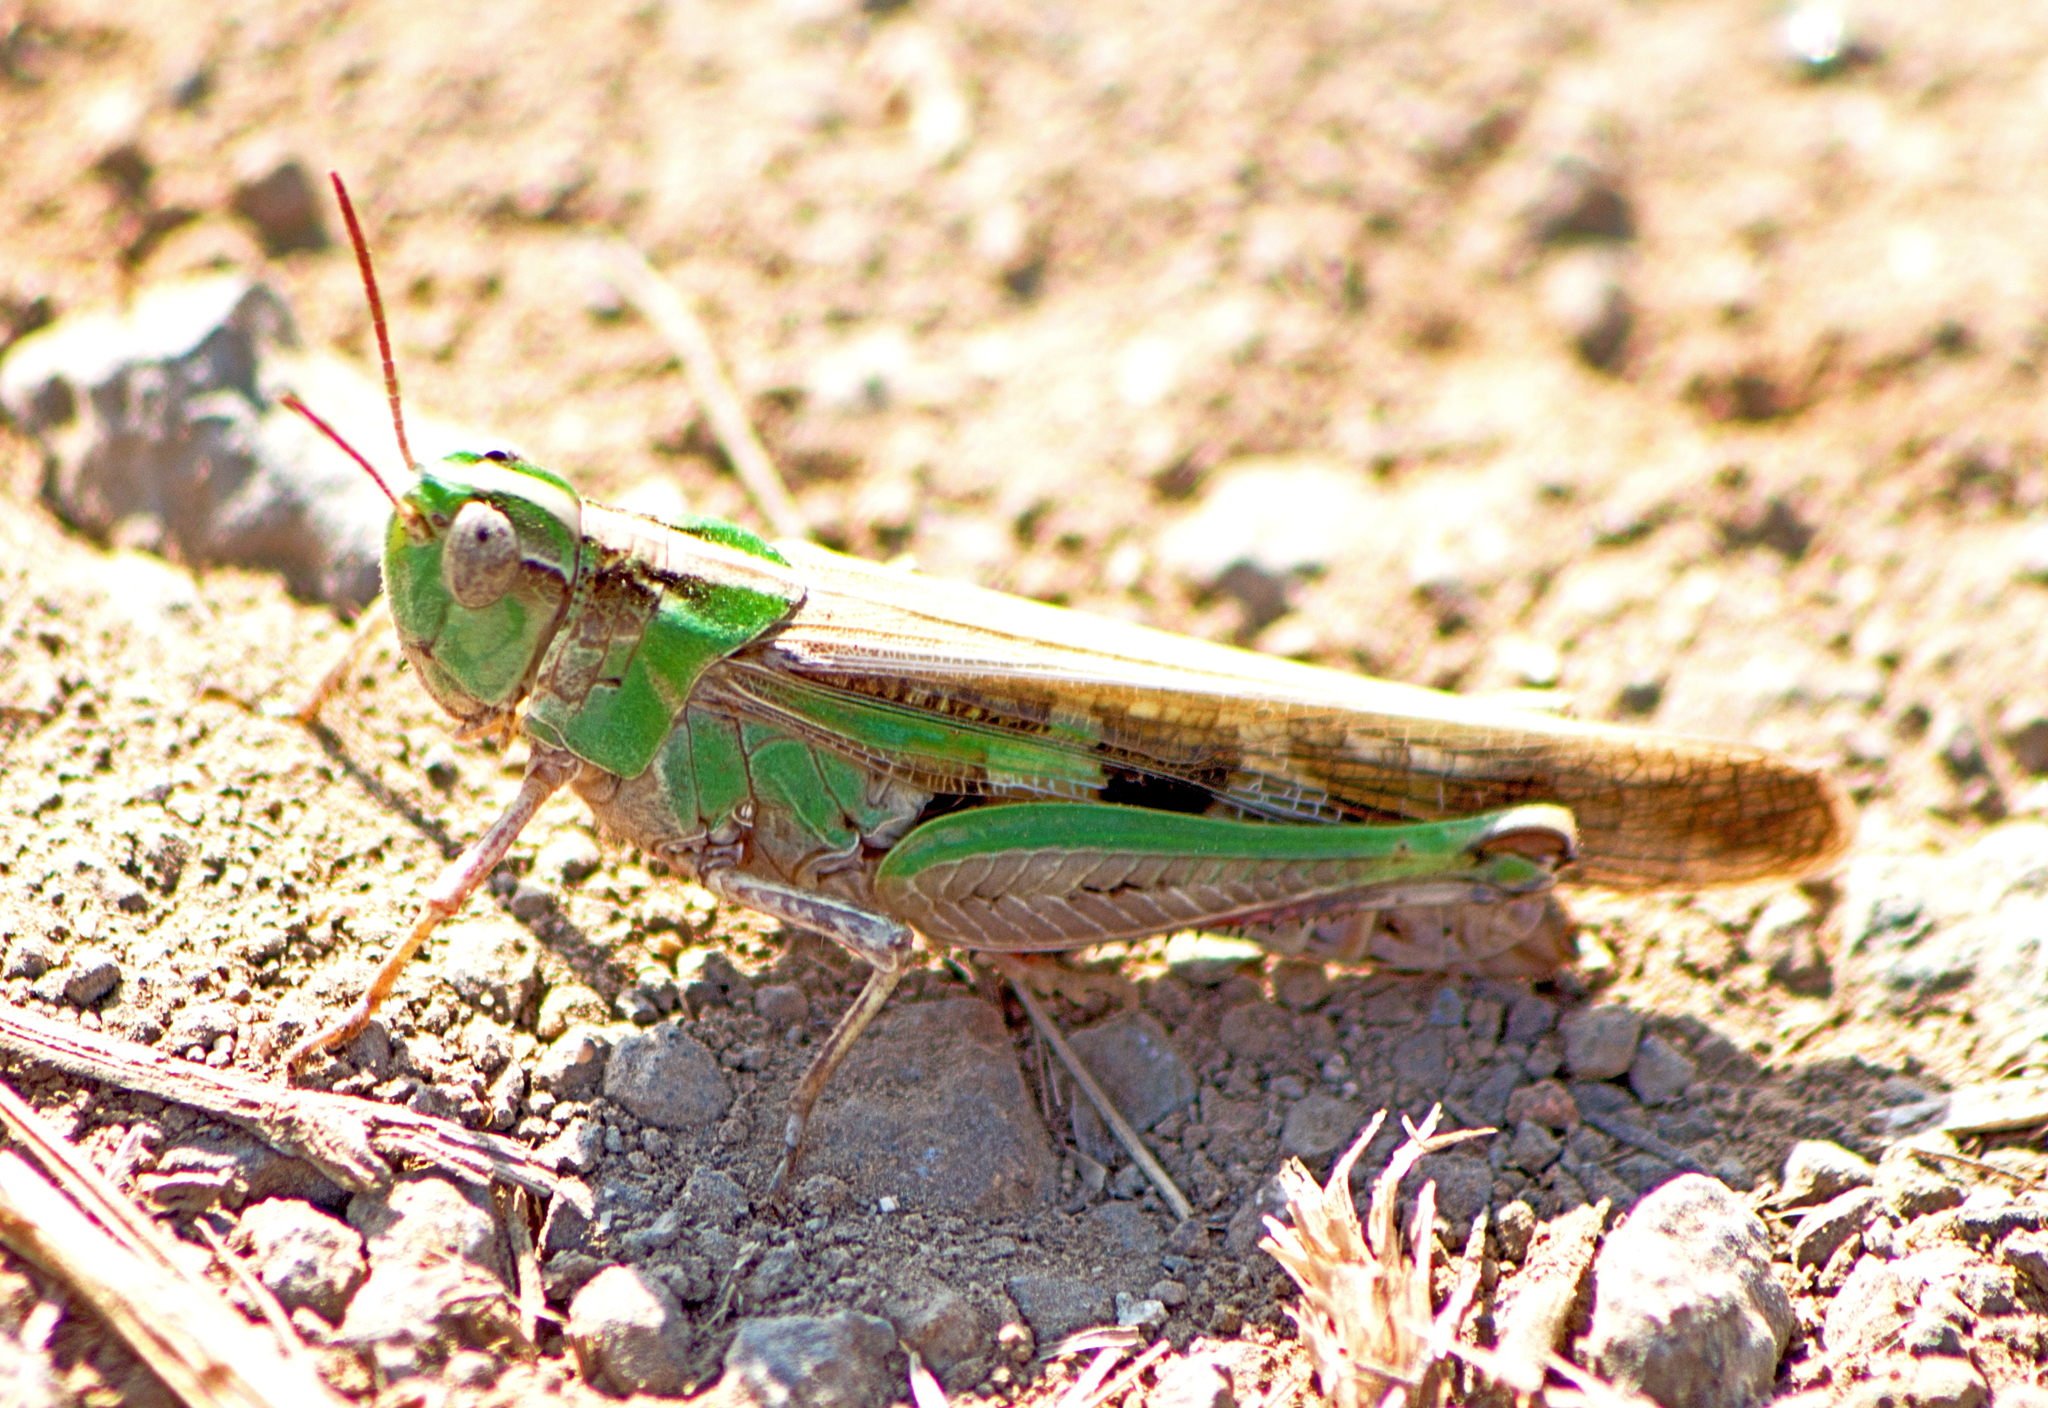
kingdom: Animalia
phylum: Arthropoda
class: Insecta
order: Orthoptera
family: Acrididae
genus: Aiolopus
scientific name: Aiolopus thalassinus
